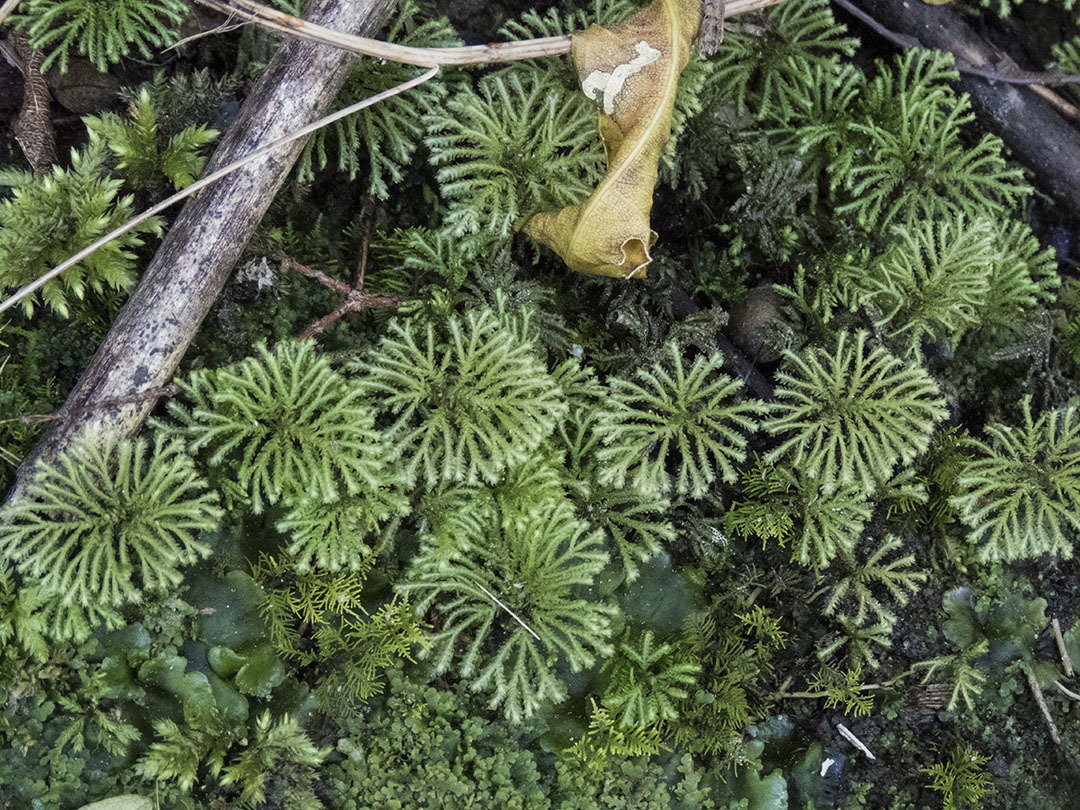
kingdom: Plantae
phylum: Bryophyta
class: Bryopsida
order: Hypopterygiales
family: Hypopterygiaceae
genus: Canalohypopterygium
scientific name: Canalohypopterygium tamariscinum
